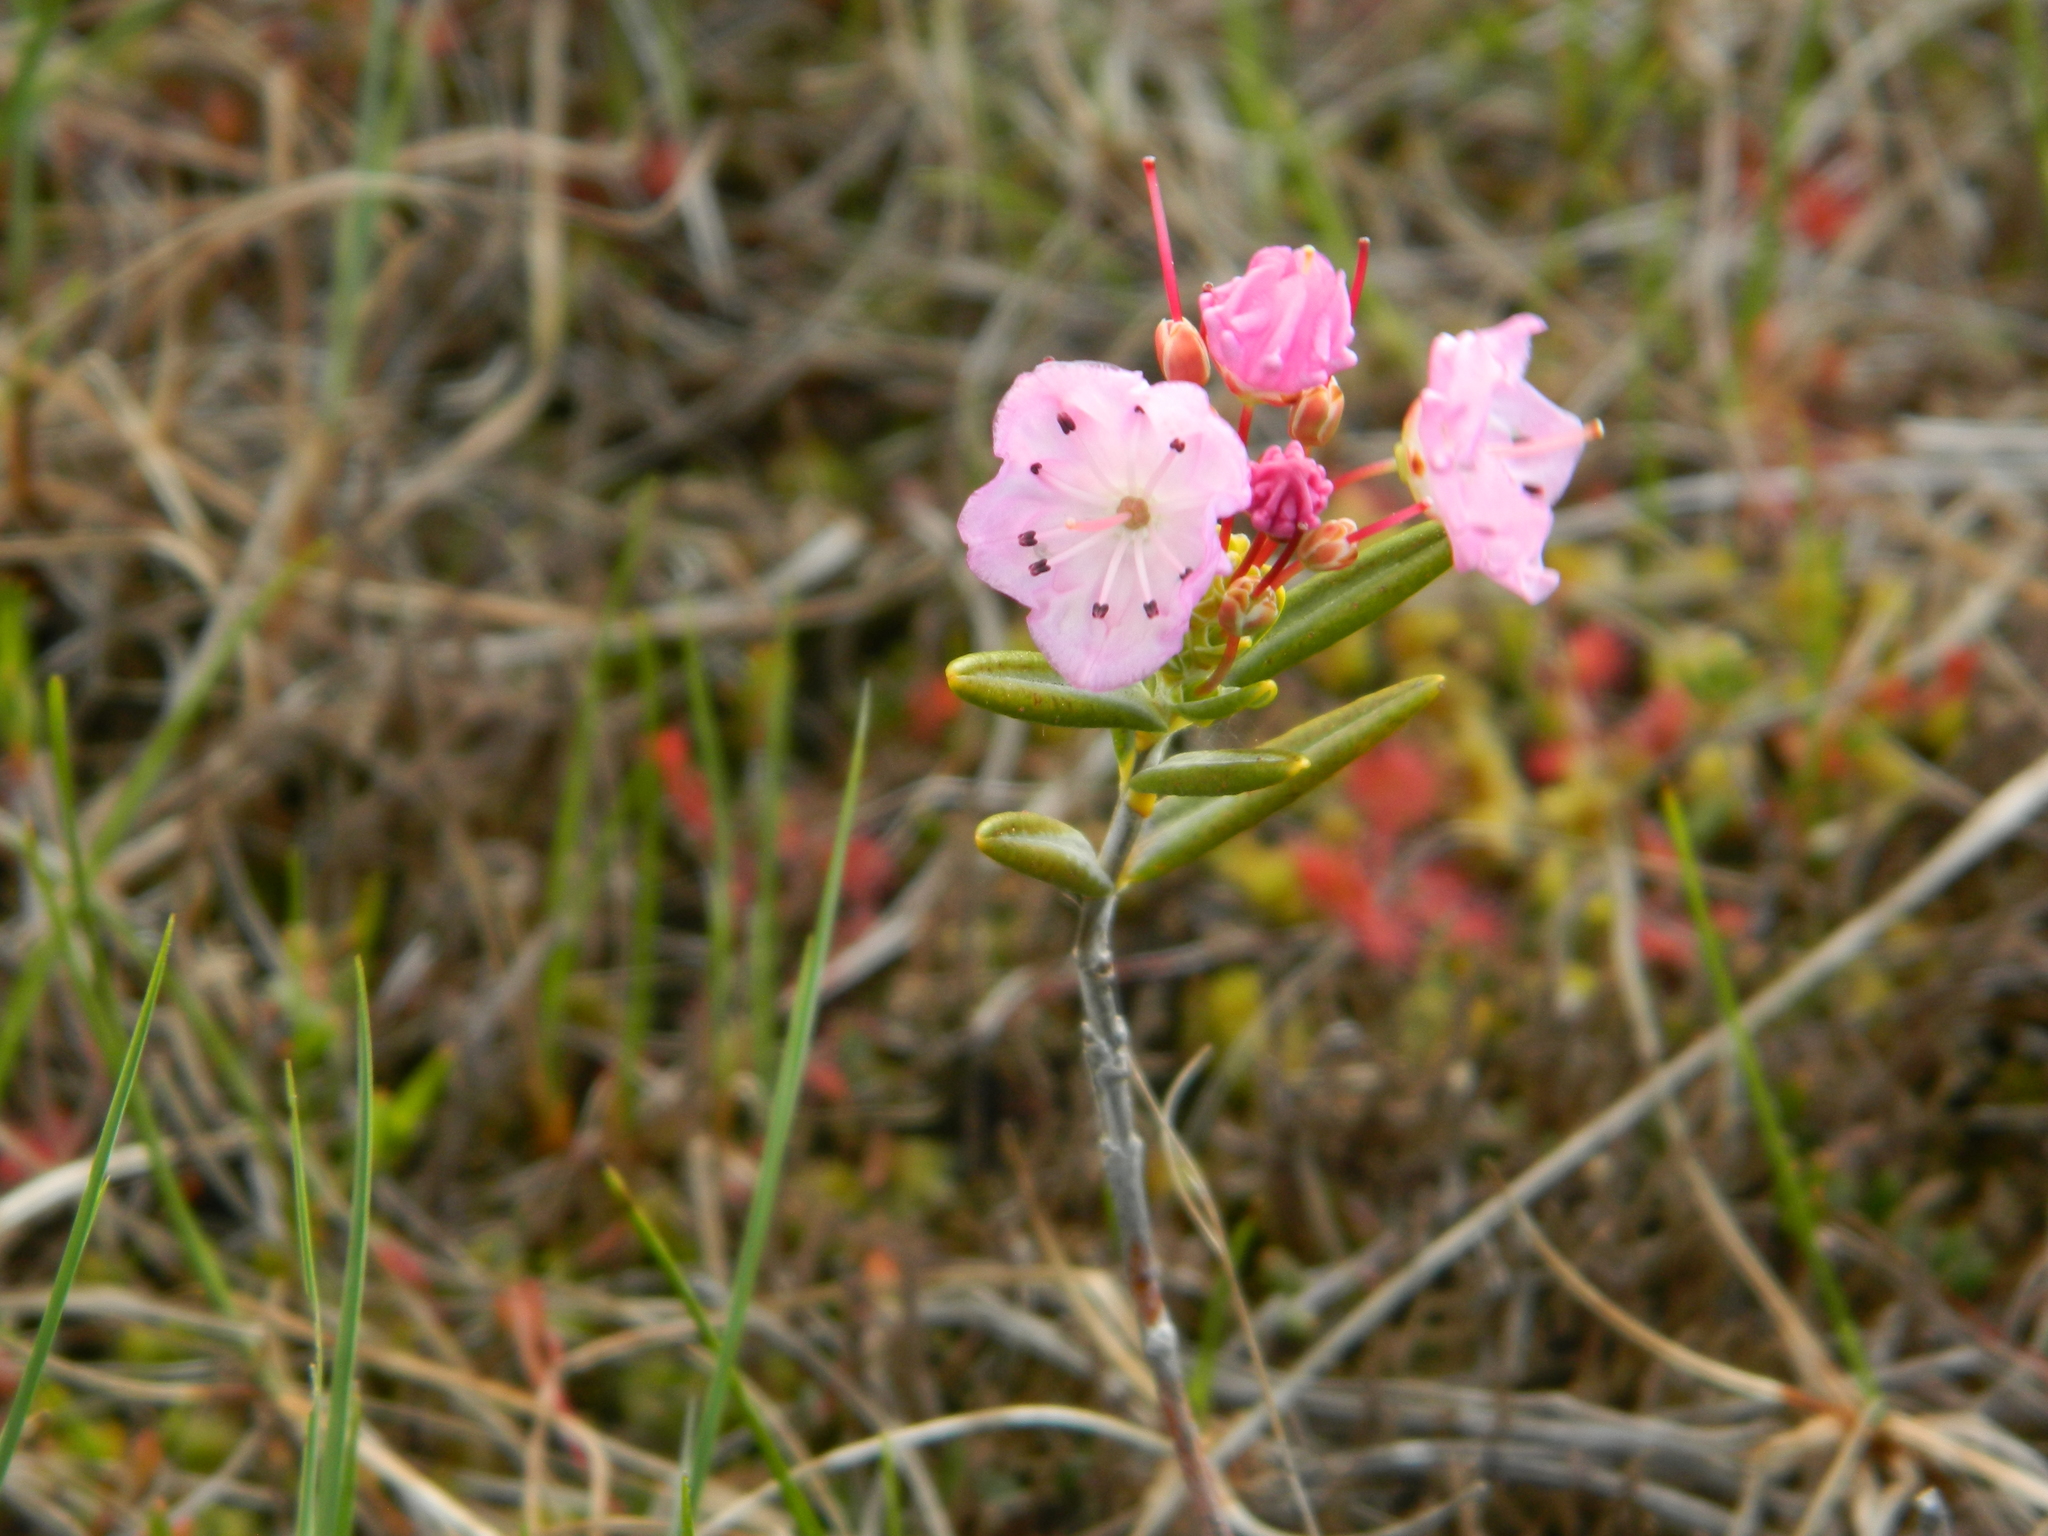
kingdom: Plantae
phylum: Tracheophyta
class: Magnoliopsida
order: Ericales
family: Ericaceae
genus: Kalmia
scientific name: Kalmia polifolia
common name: Bog-laurel
